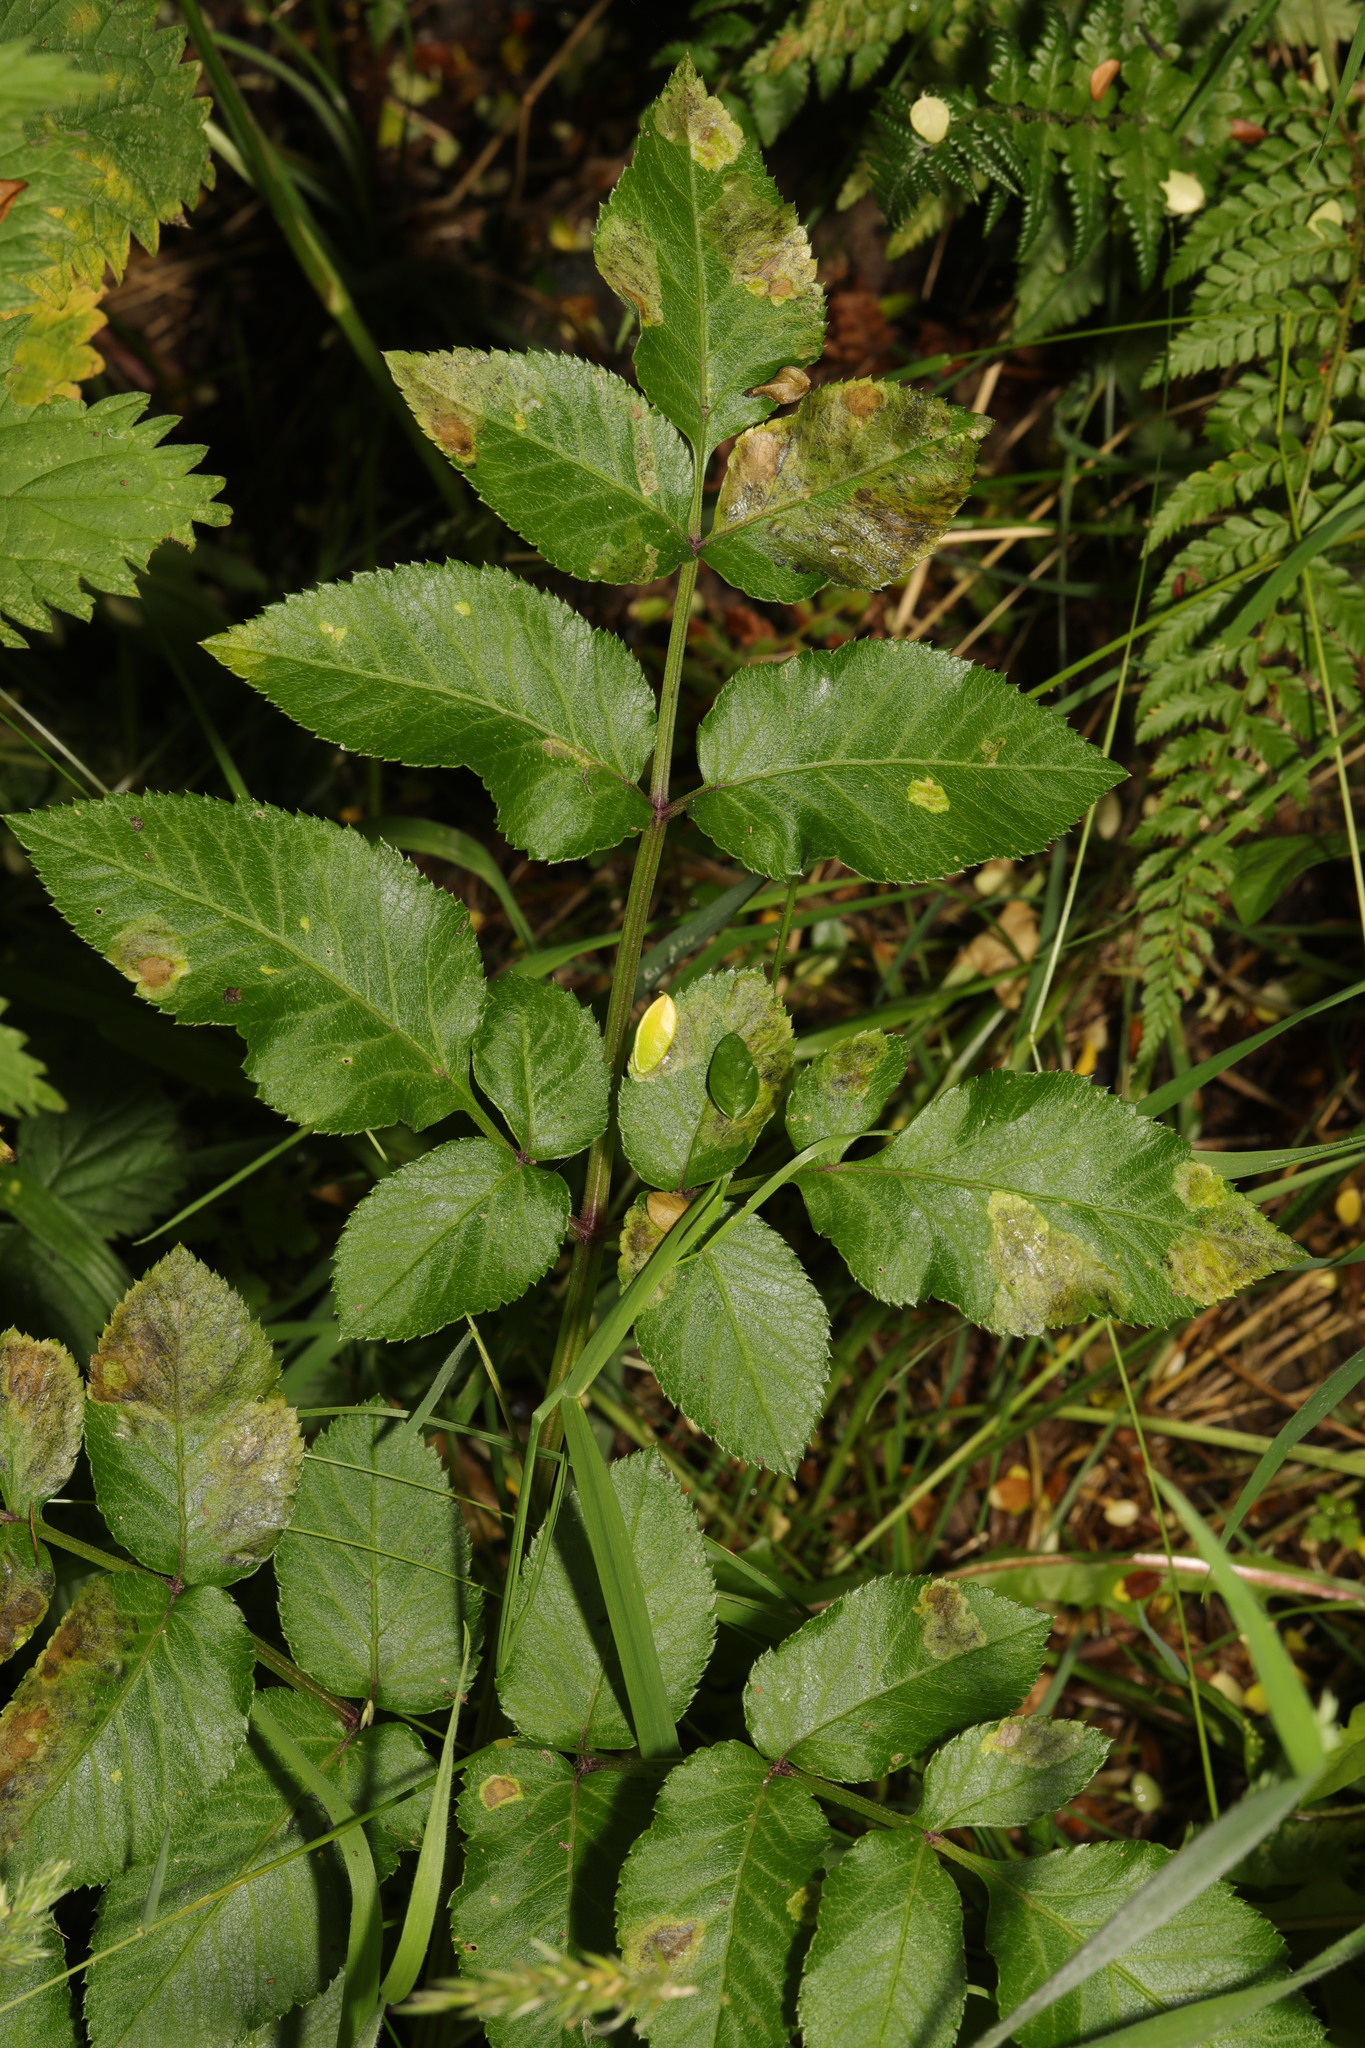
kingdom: Plantae
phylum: Tracheophyta
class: Magnoliopsida
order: Apiales
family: Apiaceae
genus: Angelica
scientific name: Angelica sylvestris
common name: Wild angelica
